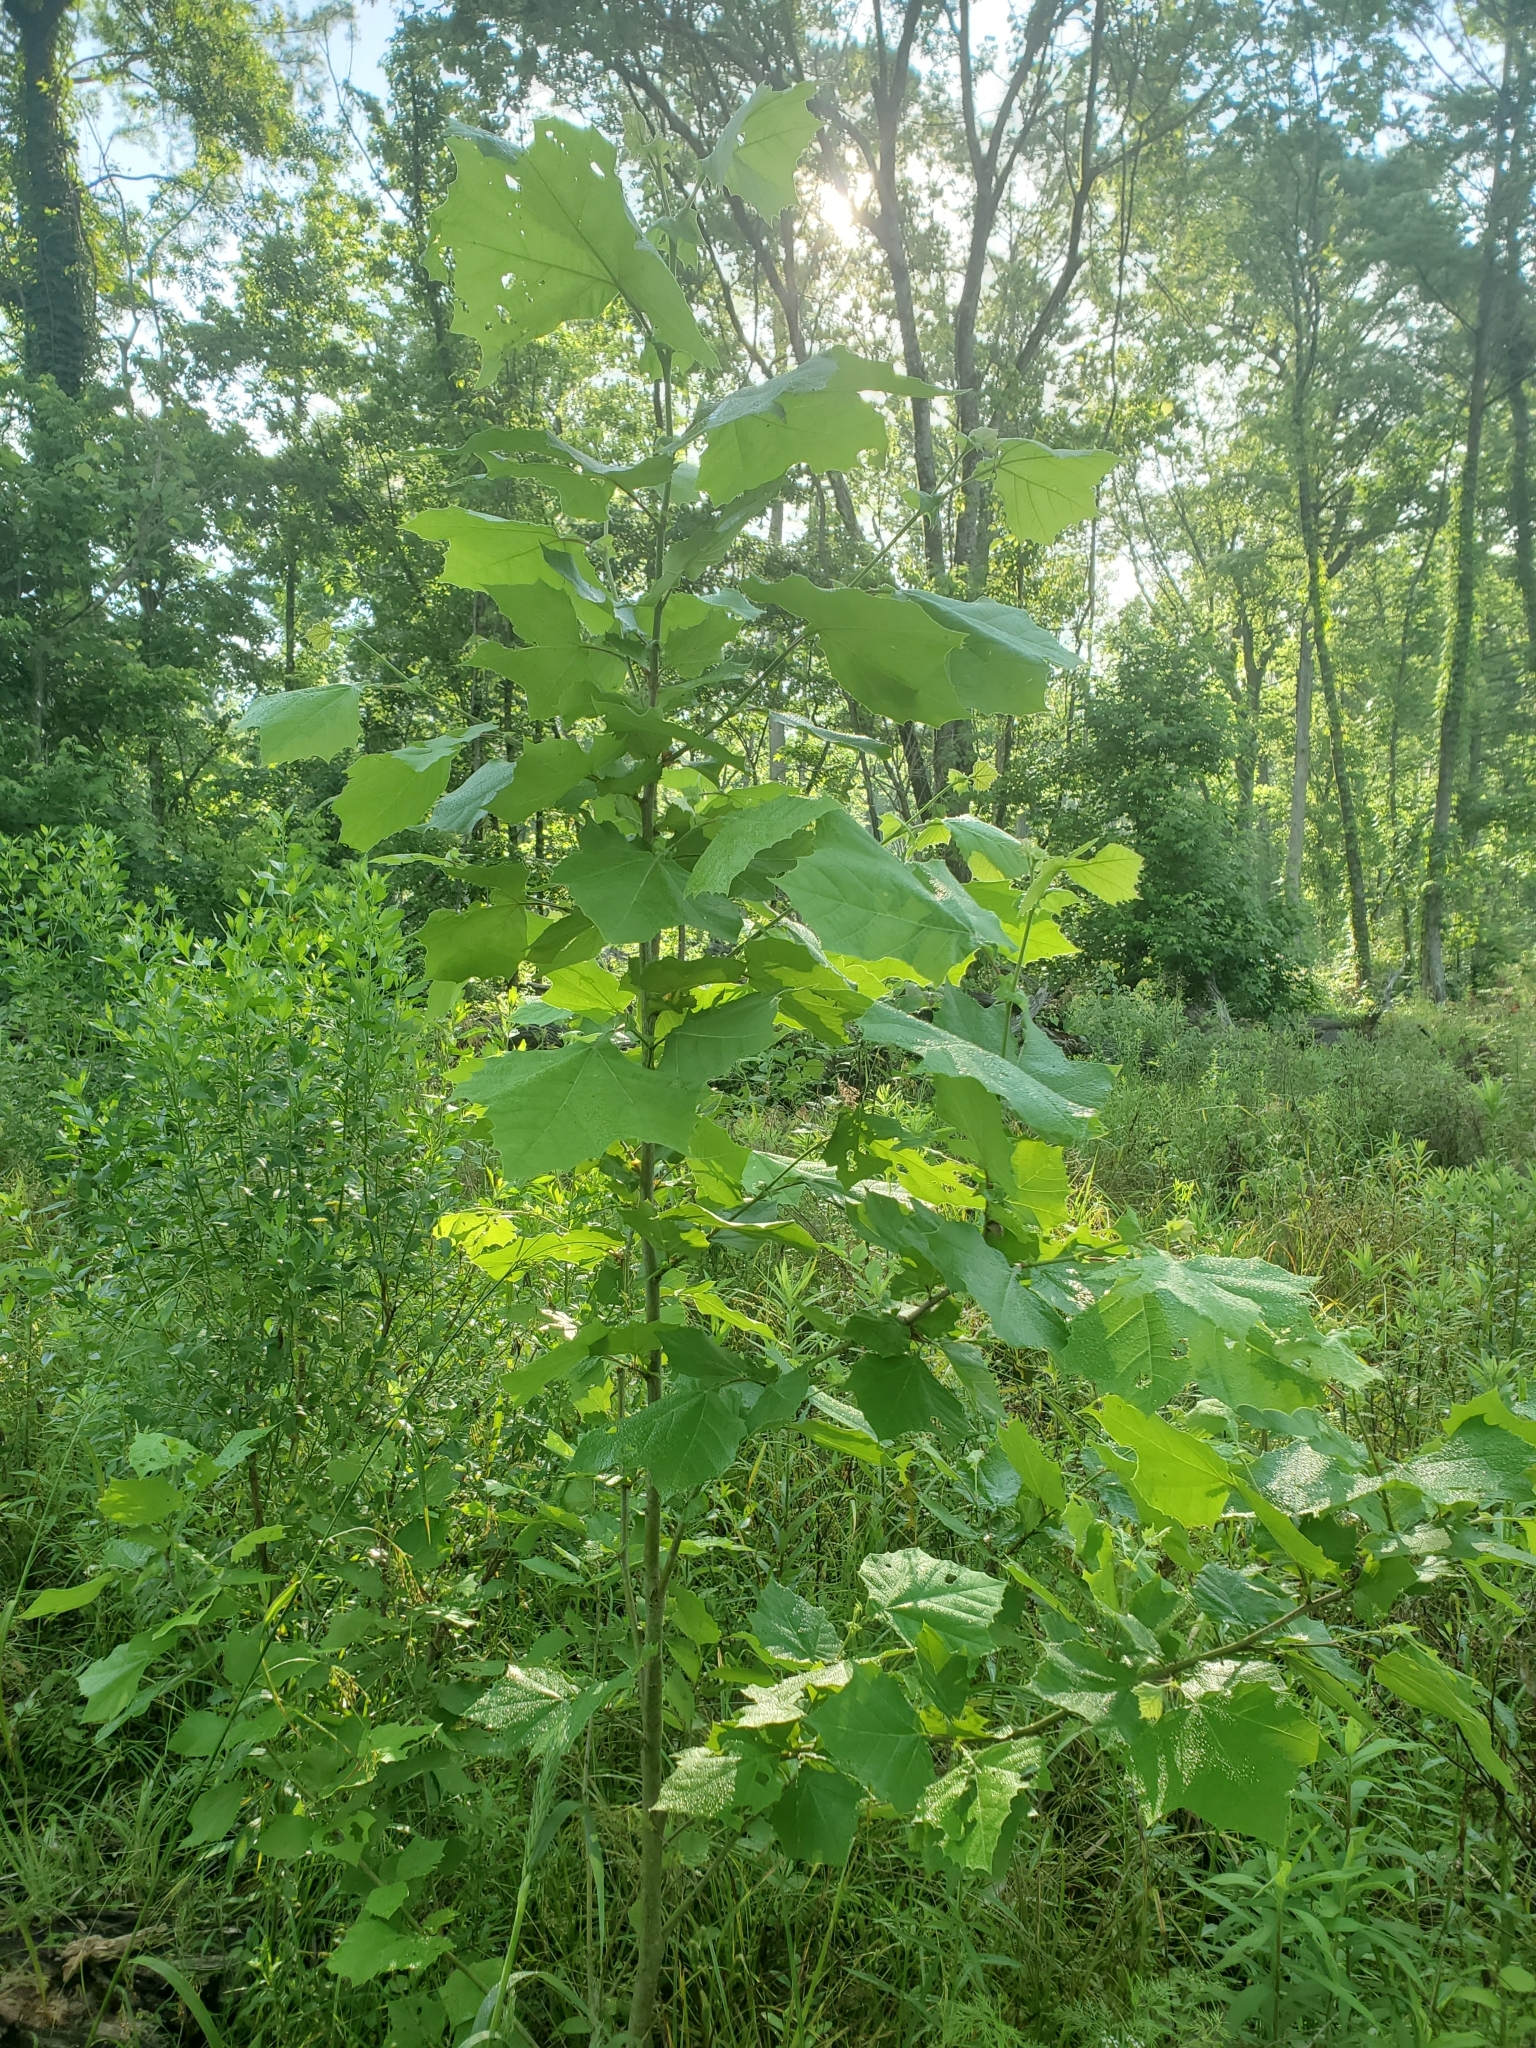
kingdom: Plantae
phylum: Tracheophyta
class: Magnoliopsida
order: Proteales
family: Platanaceae
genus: Platanus
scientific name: Platanus occidentalis
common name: American sycamore
